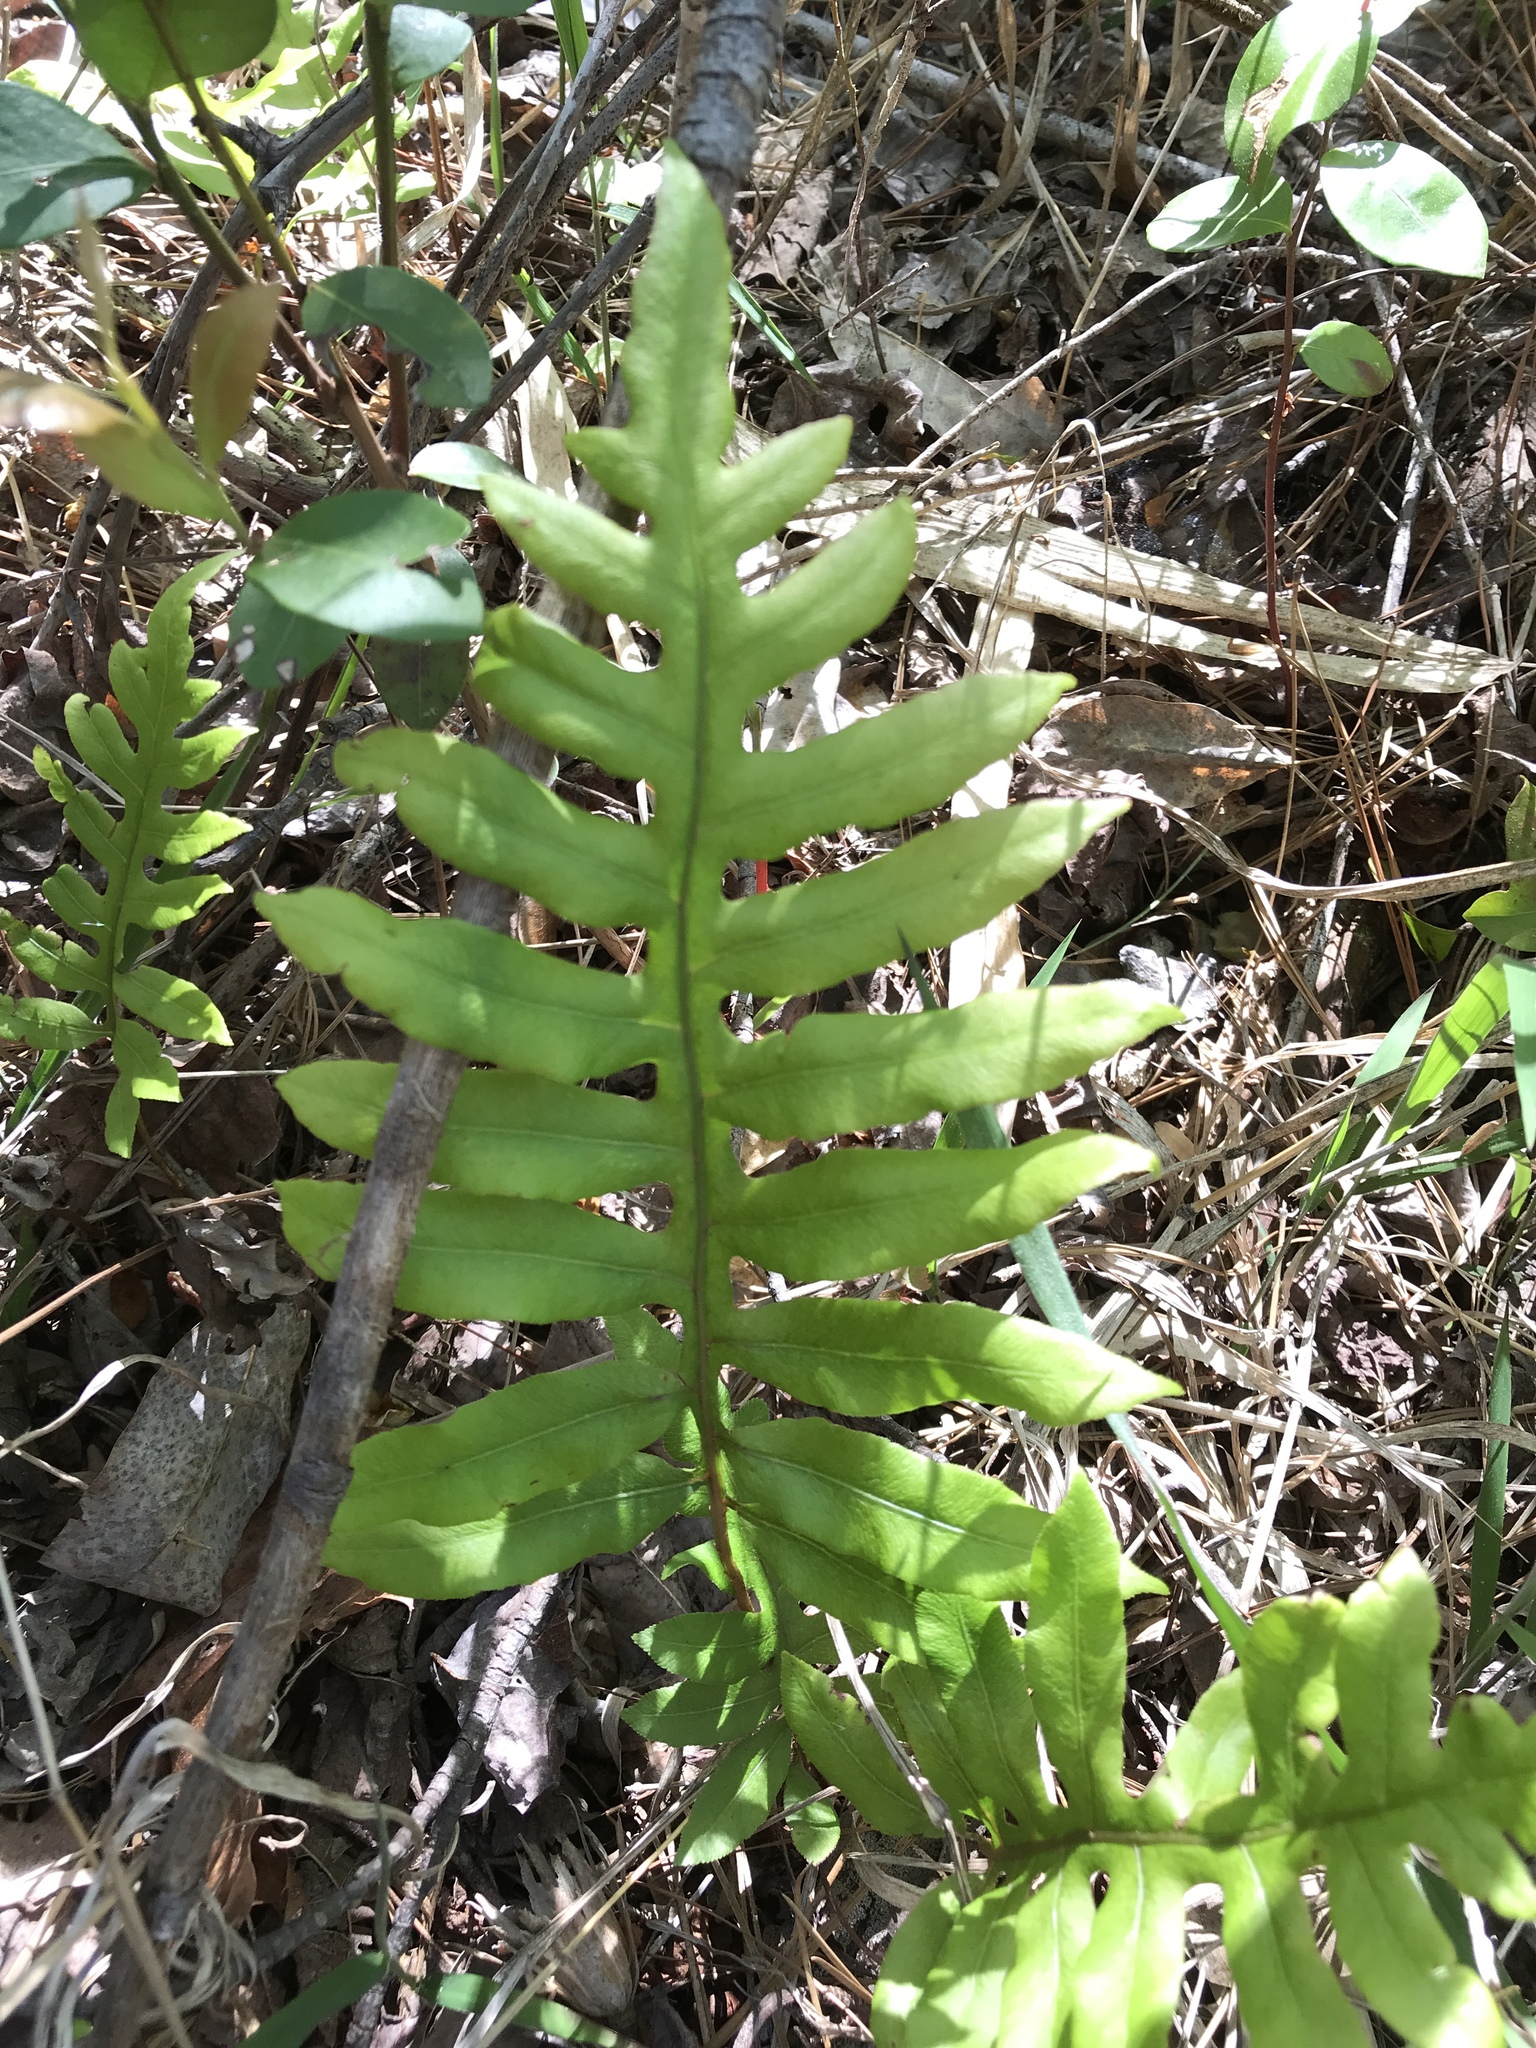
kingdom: Plantae
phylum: Tracheophyta
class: Polypodiopsida
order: Polypodiales
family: Blechnaceae
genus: Lorinseria
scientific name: Lorinseria areolata
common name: Dwarf chain fern
